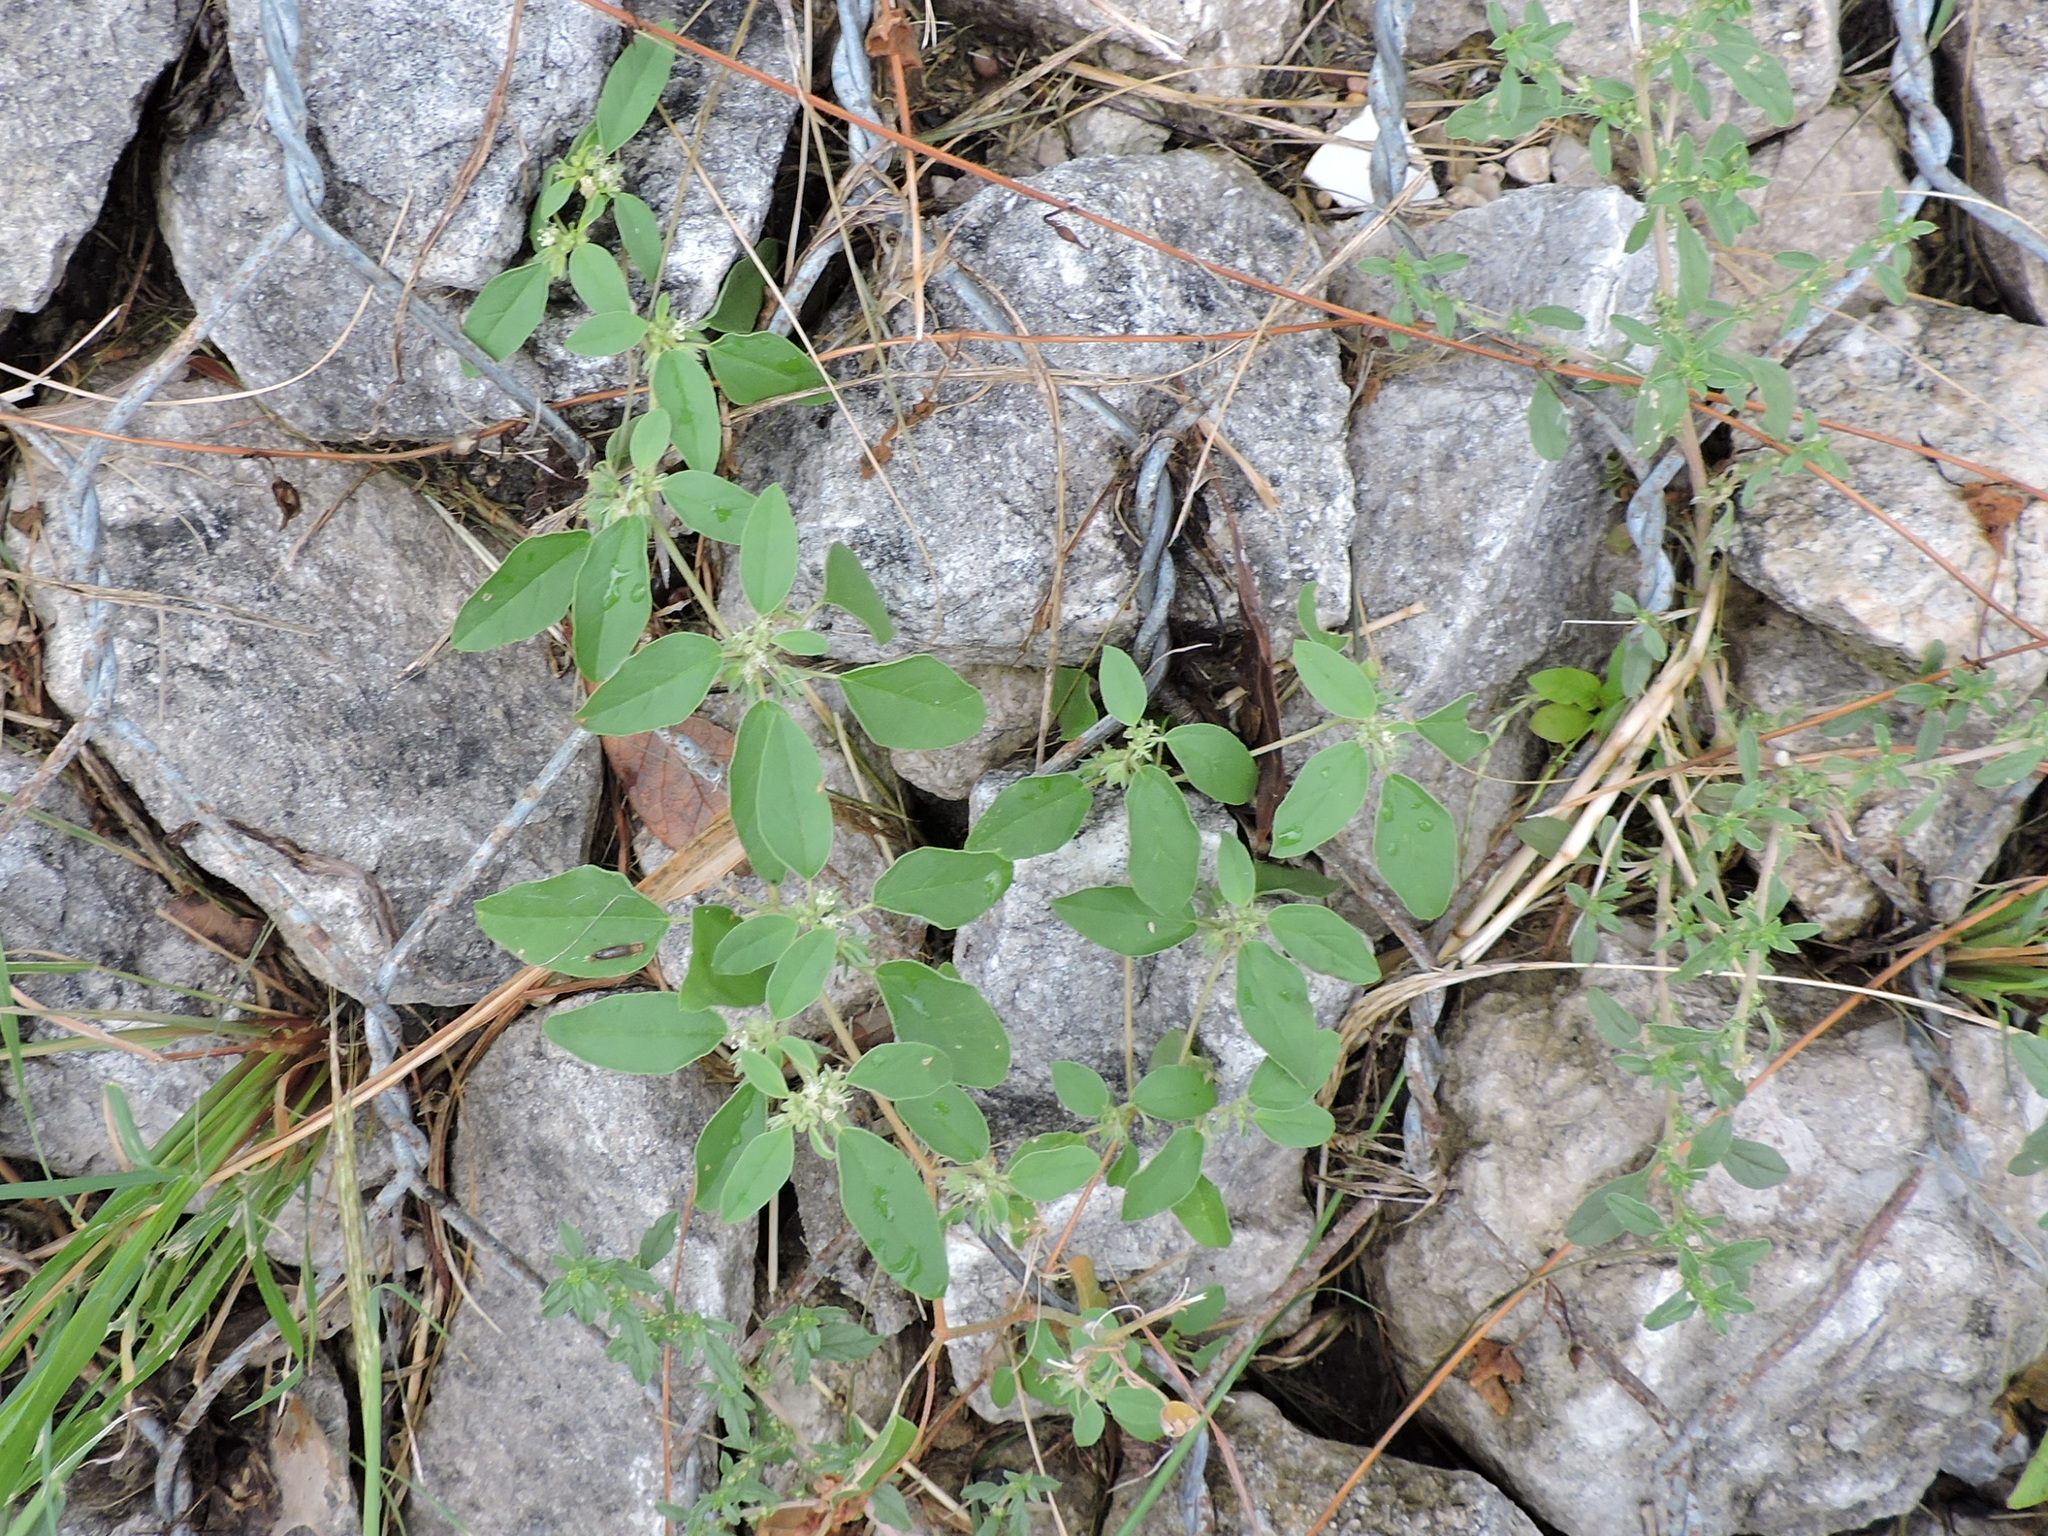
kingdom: Plantae
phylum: Tracheophyta
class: Magnoliopsida
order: Malpighiales
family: Euphorbiaceae
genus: Croton
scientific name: Croton monanthogynus
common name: One-seed croton
